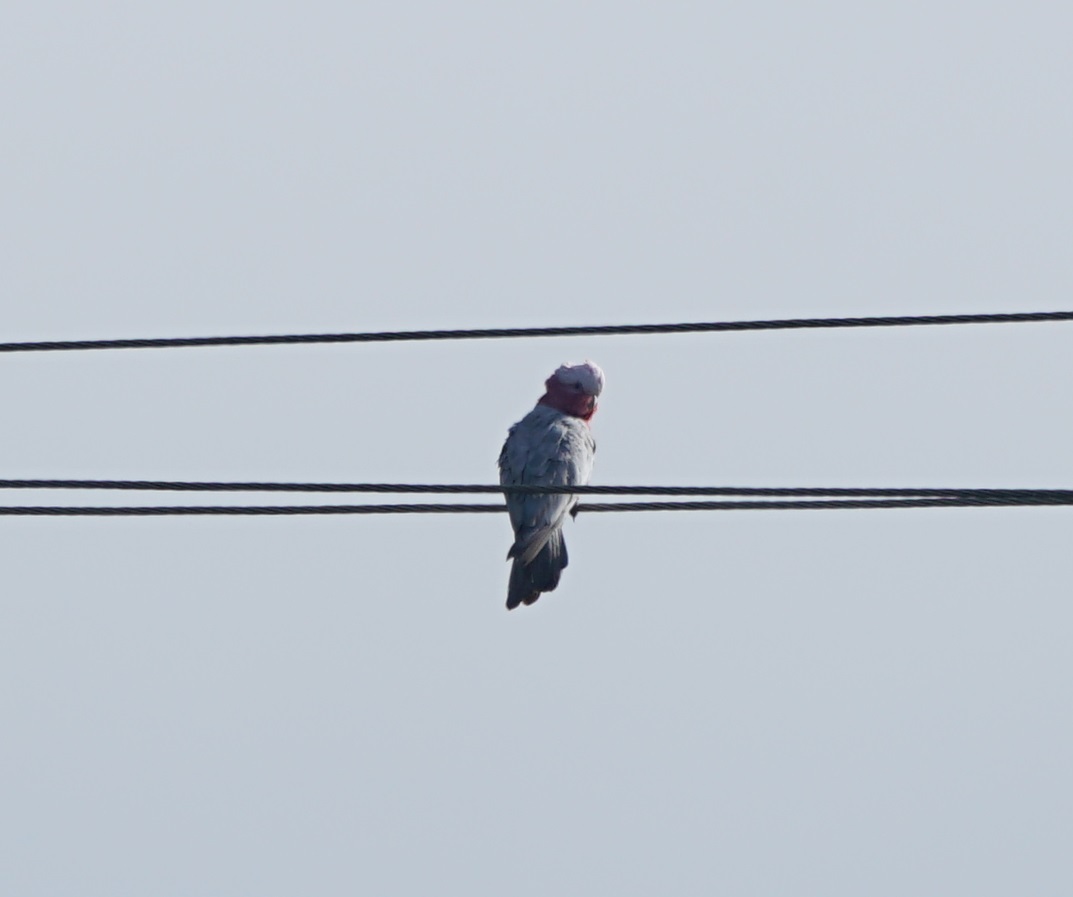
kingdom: Animalia
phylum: Chordata
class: Aves
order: Psittaciformes
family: Psittacidae
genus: Eolophus
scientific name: Eolophus roseicapilla
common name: Galah
